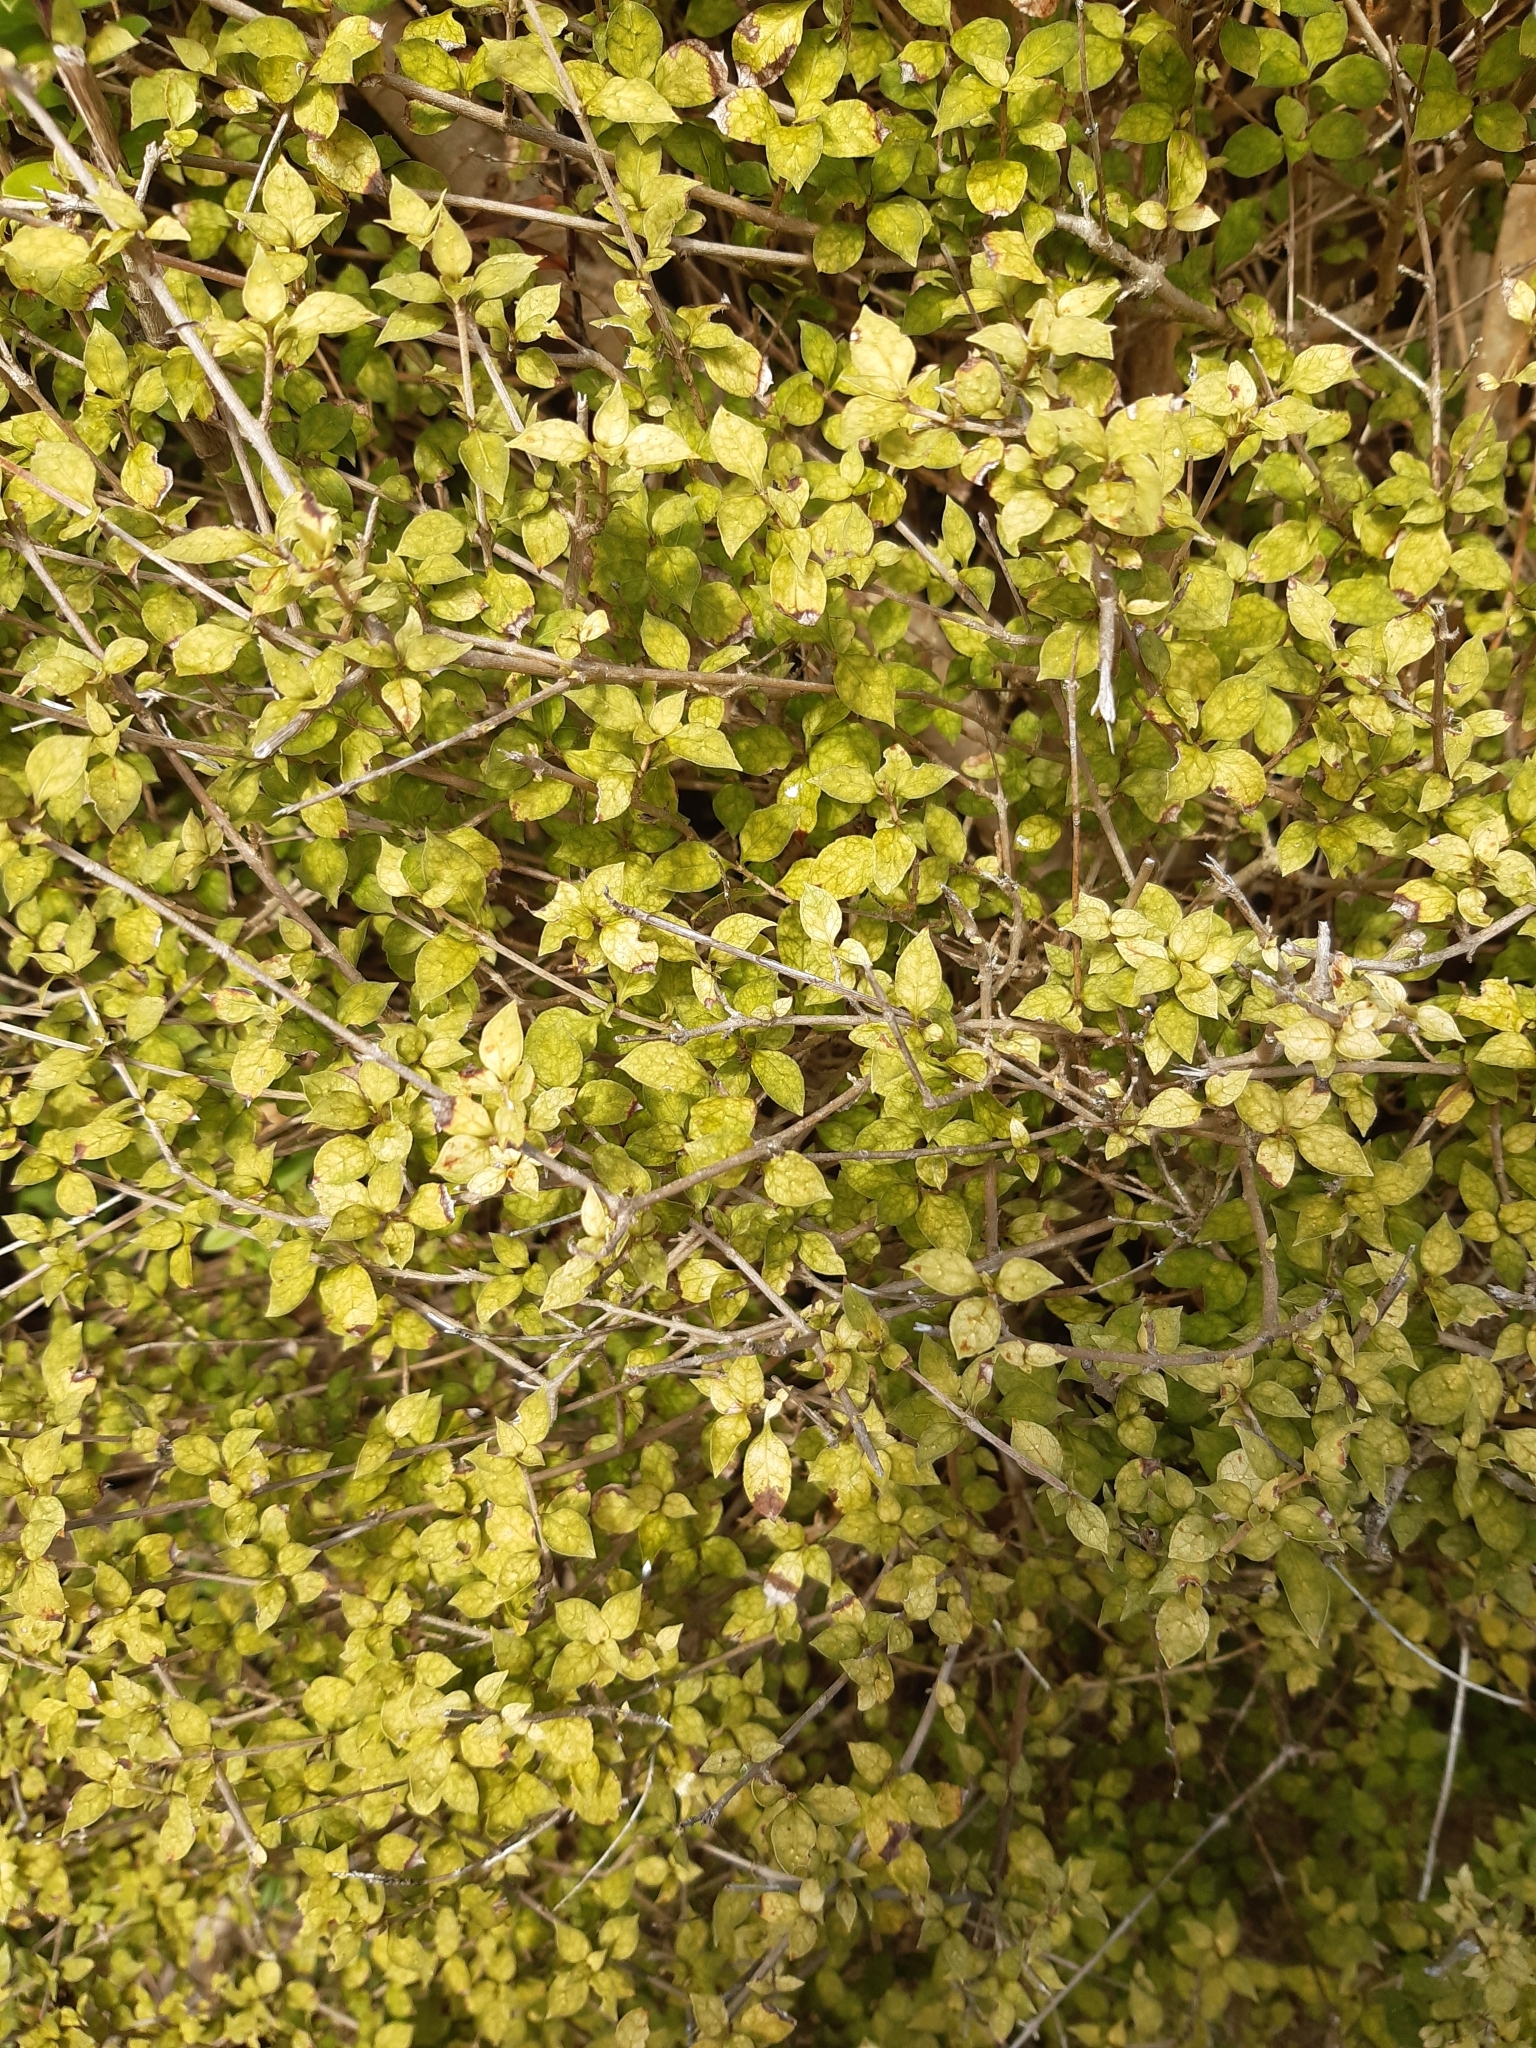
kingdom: Plantae
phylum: Tracheophyta
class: Magnoliopsida
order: Gentianales
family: Rubiaceae
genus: Coprosma
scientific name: Coprosma areolata
